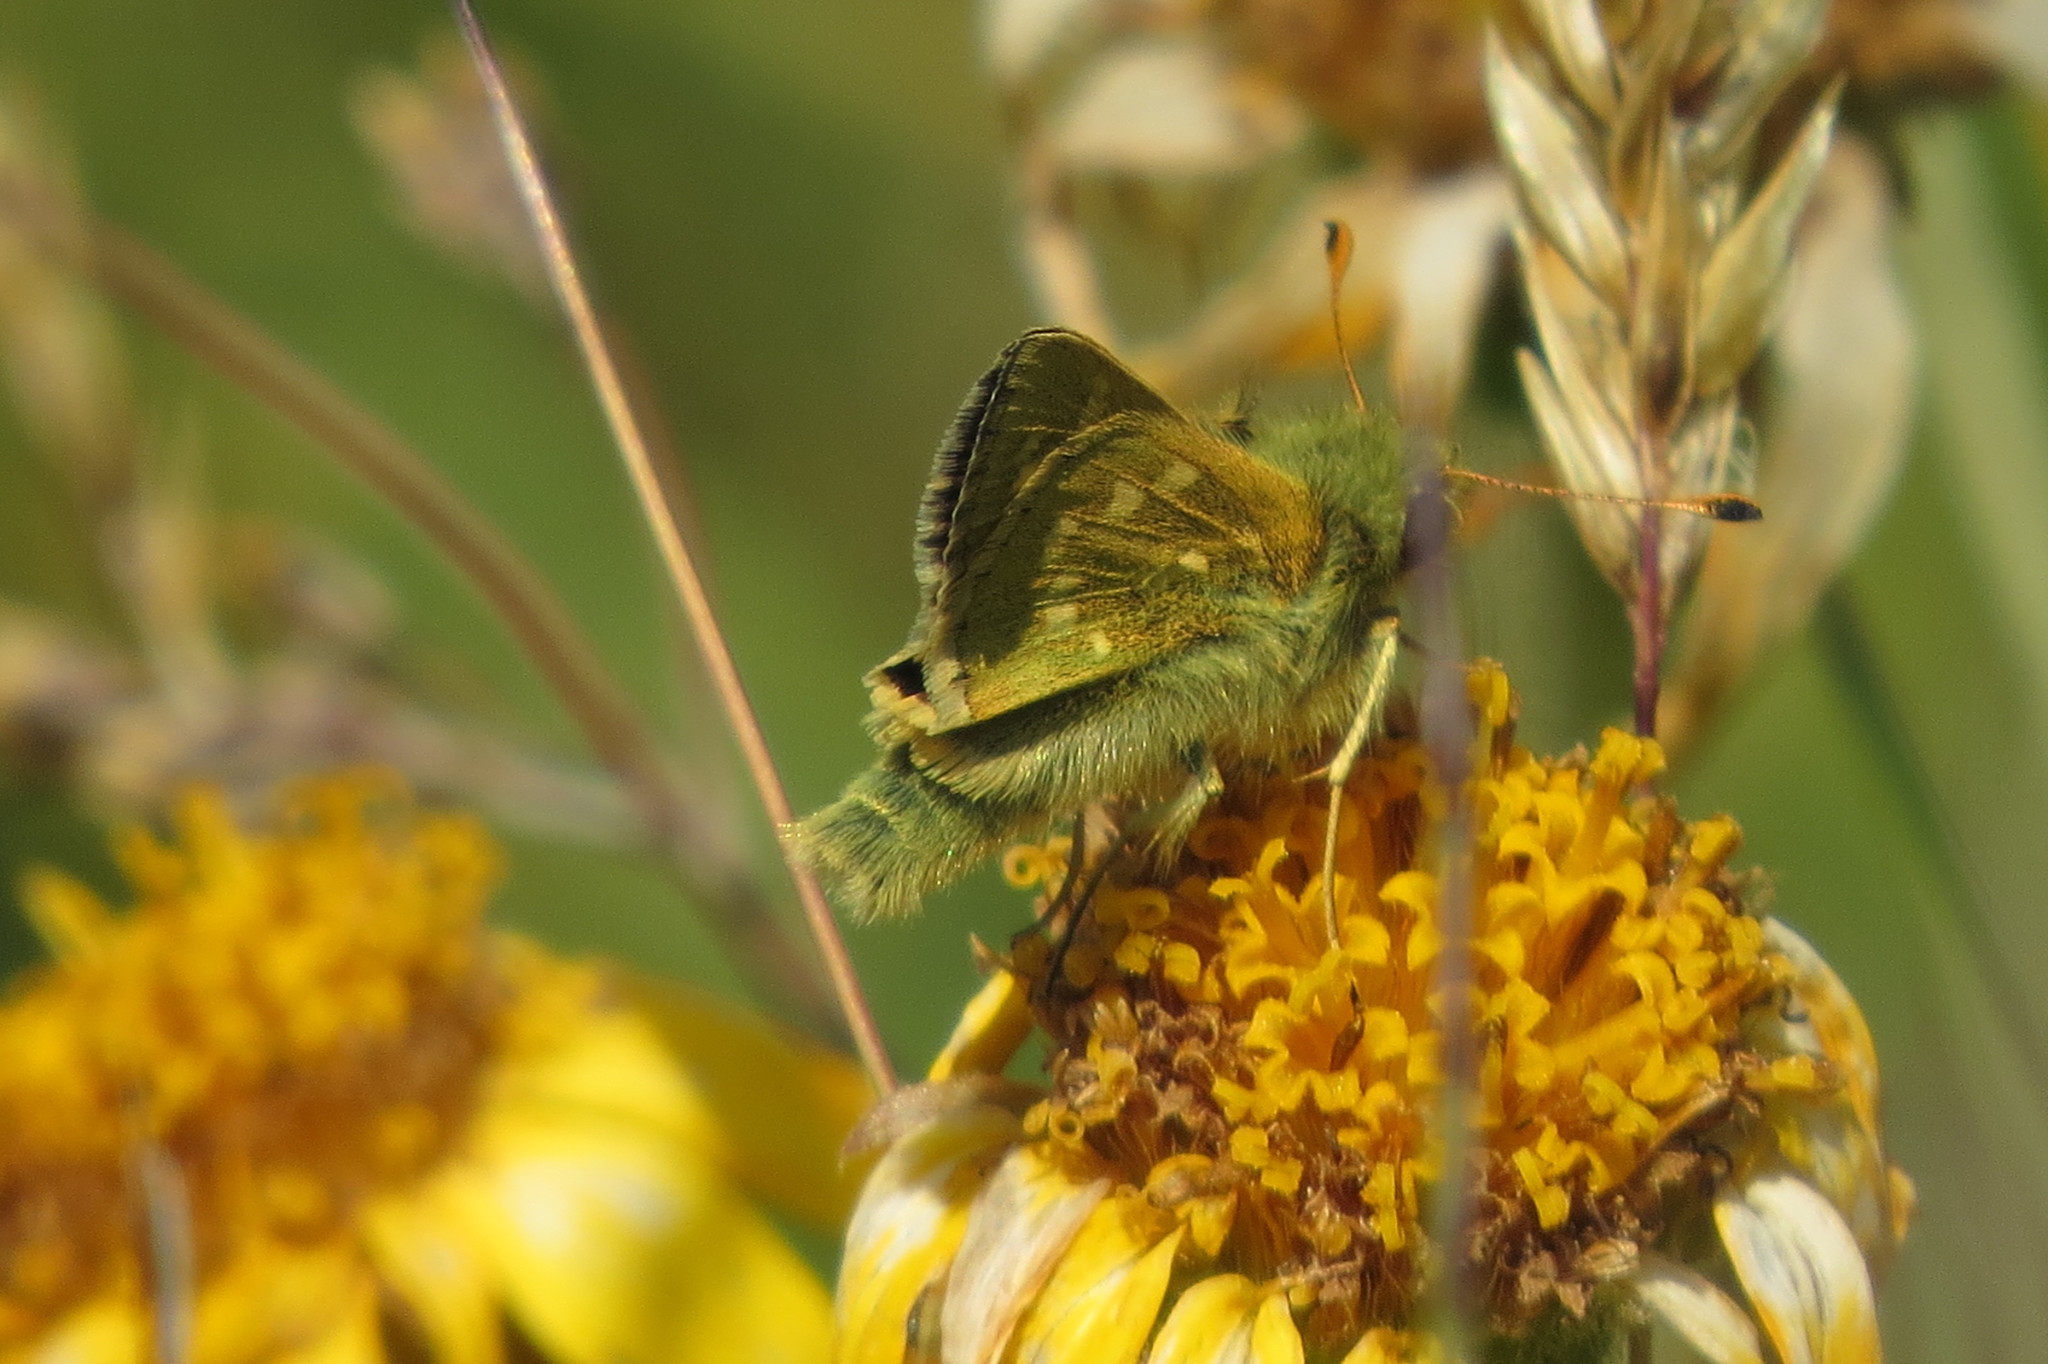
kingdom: Animalia
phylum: Arthropoda
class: Insecta
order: Lepidoptera
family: Hesperiidae
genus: Hesperia
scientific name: Hesperia comma
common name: Common branded skipper
